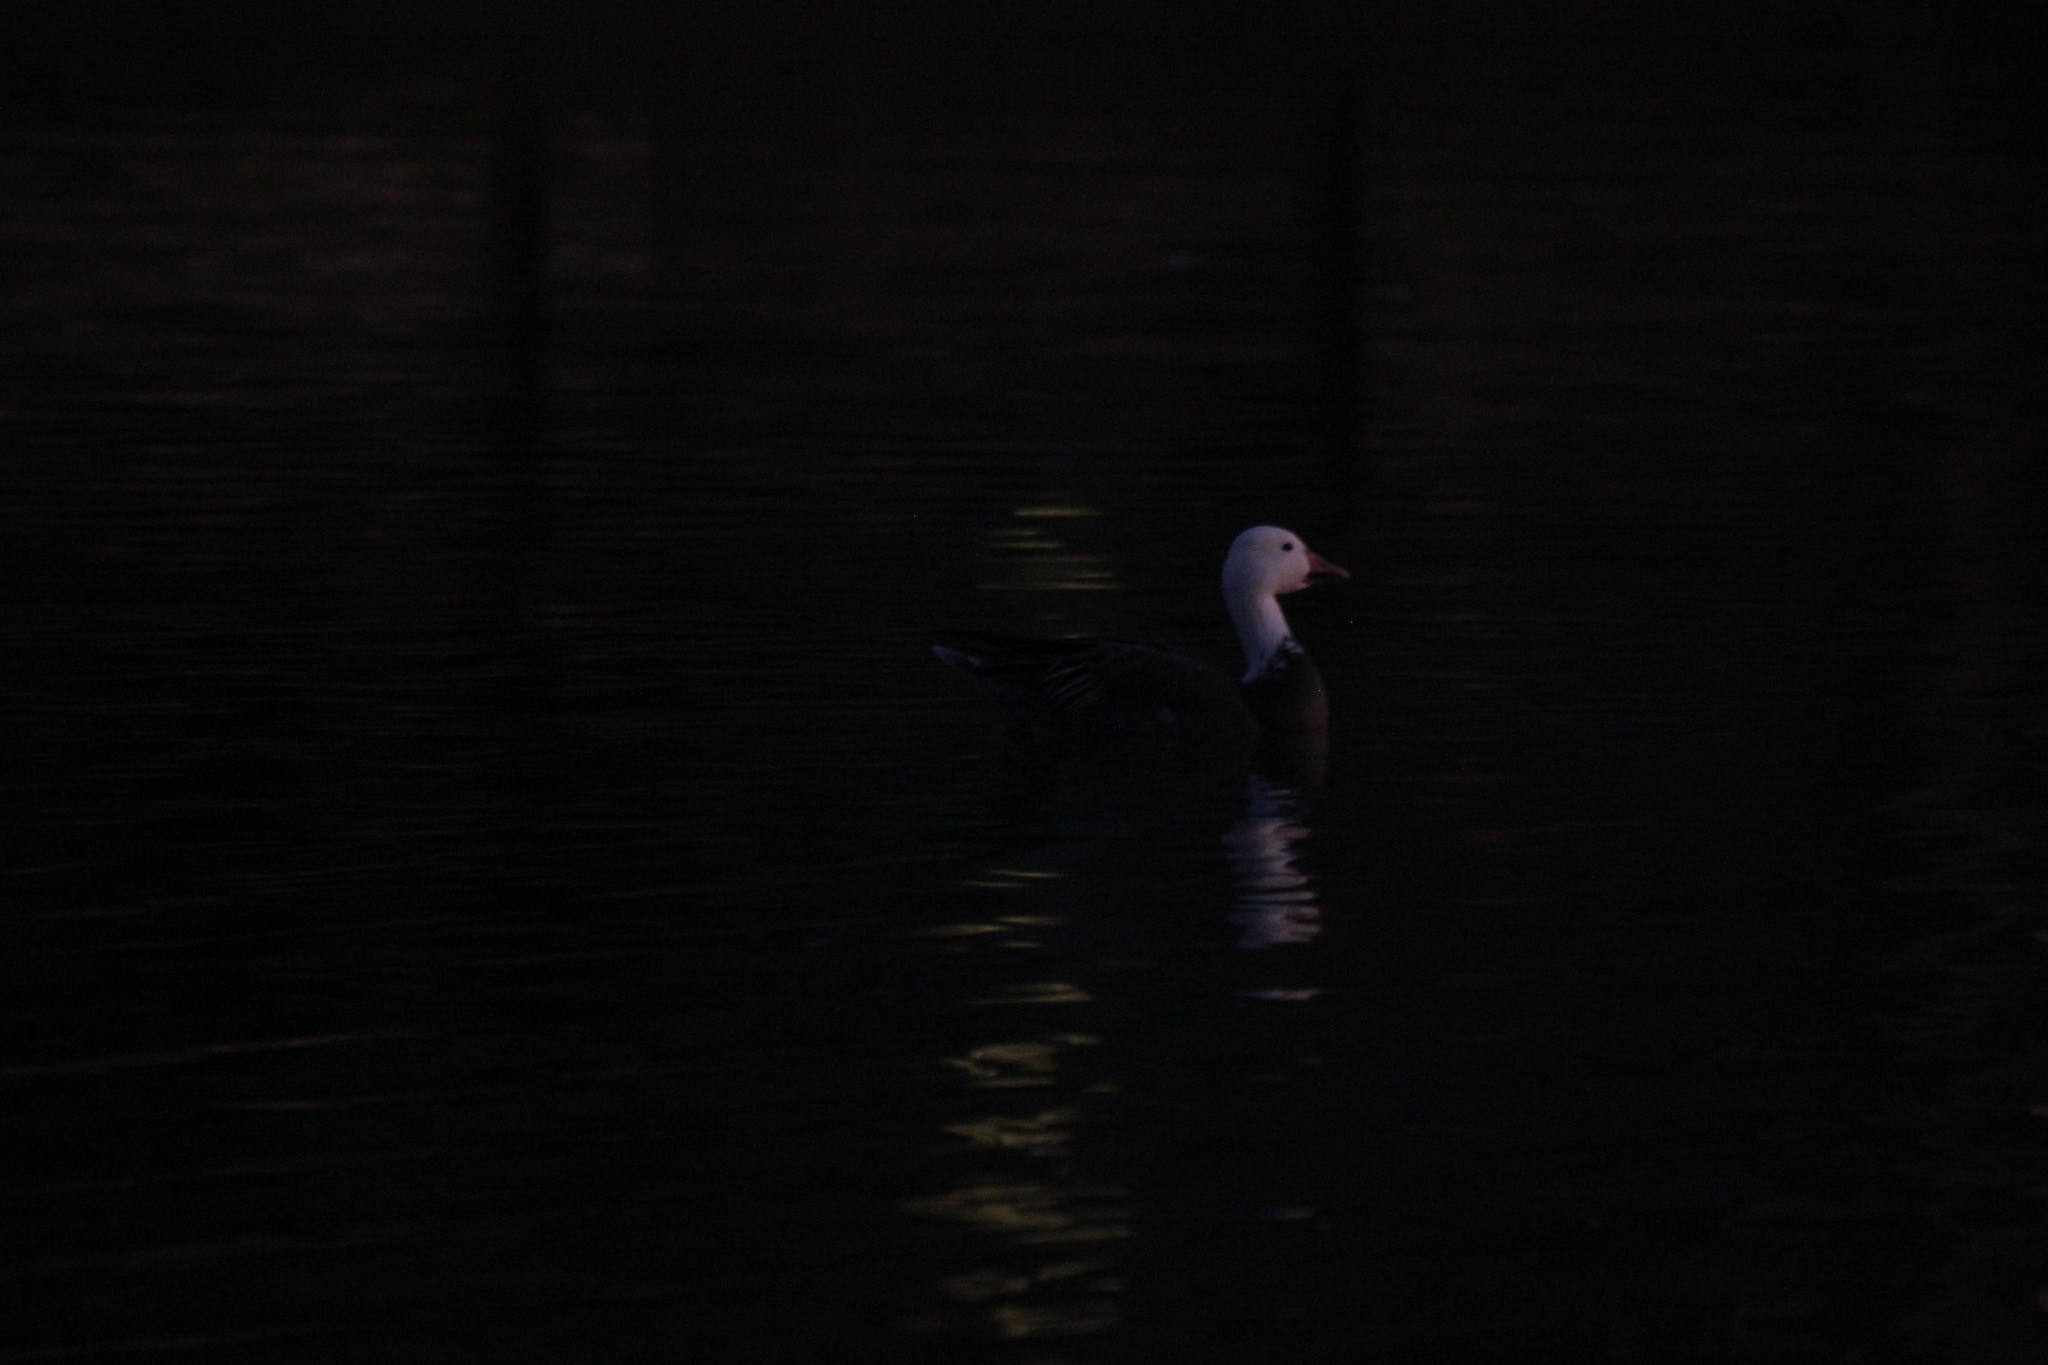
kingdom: Animalia
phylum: Chordata
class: Aves
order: Anseriformes
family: Anatidae
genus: Anser
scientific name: Anser caerulescens
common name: Snow goose
